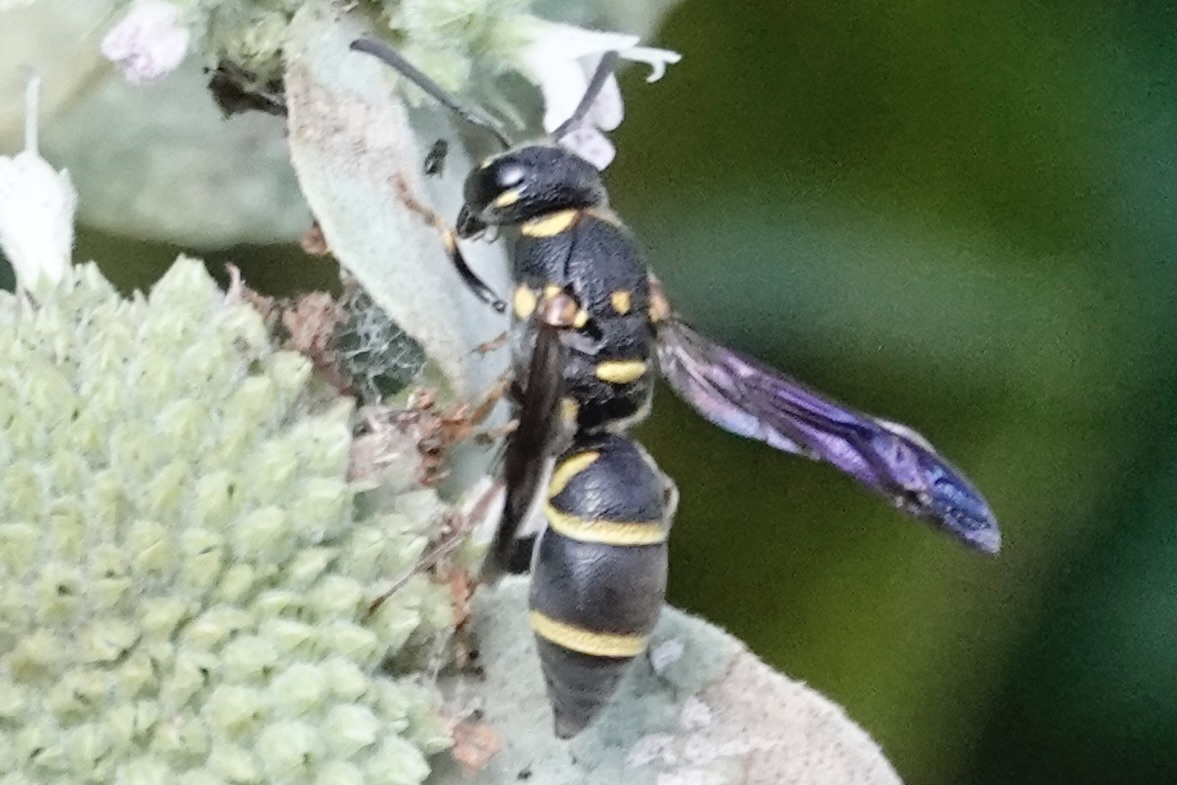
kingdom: Animalia
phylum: Arthropoda
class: Insecta
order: Hymenoptera
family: Eumenidae
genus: Parancistrocerus
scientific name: Parancistrocerus fulvipes
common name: Potter wasp
